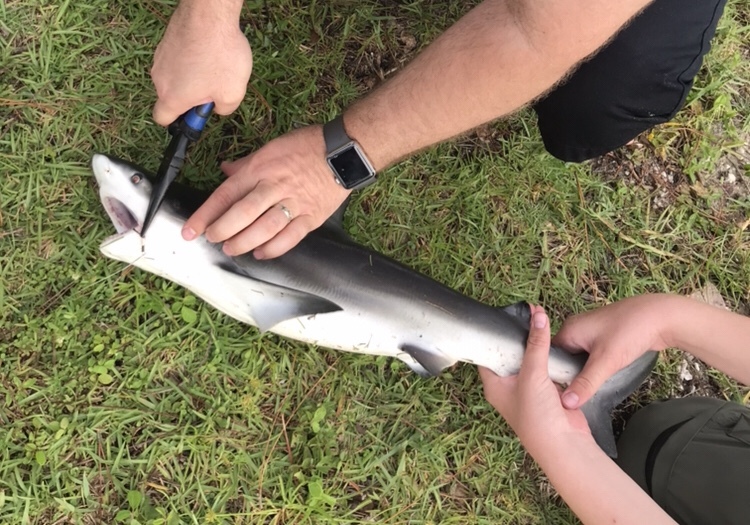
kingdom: Animalia
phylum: Chordata
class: Elasmobranchii
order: Carcharhiniformes
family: Carcharhinidae
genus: Carcharhinus
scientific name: Carcharhinus leucas
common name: Bull shark
